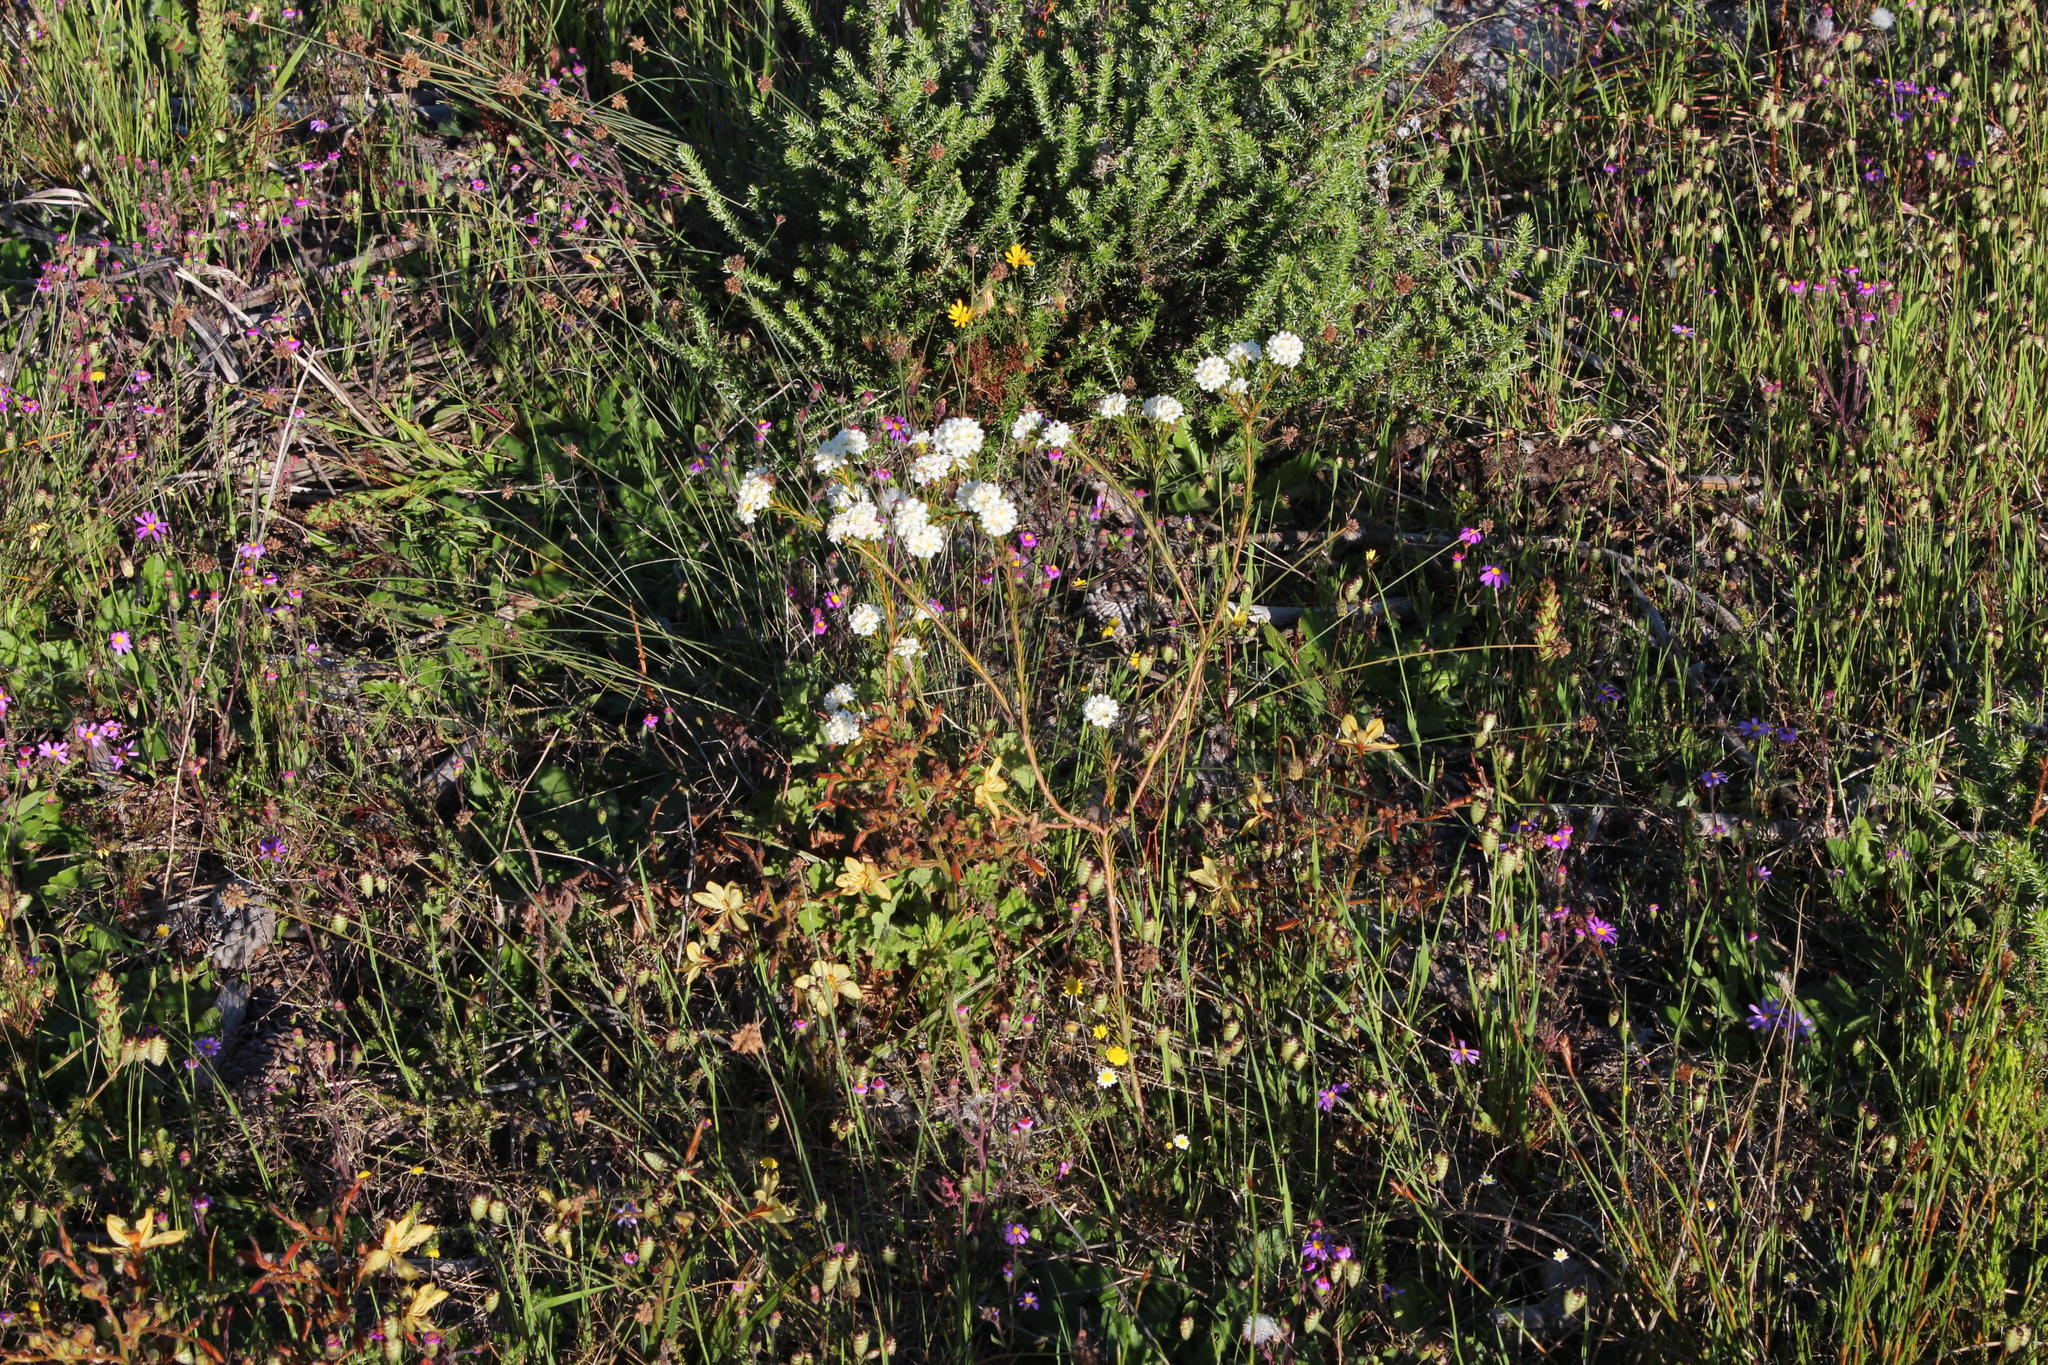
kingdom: Plantae
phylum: Tracheophyta
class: Magnoliopsida
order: Malvales
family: Thymelaeaceae
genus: Lachnaea
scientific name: Lachnaea capitata
